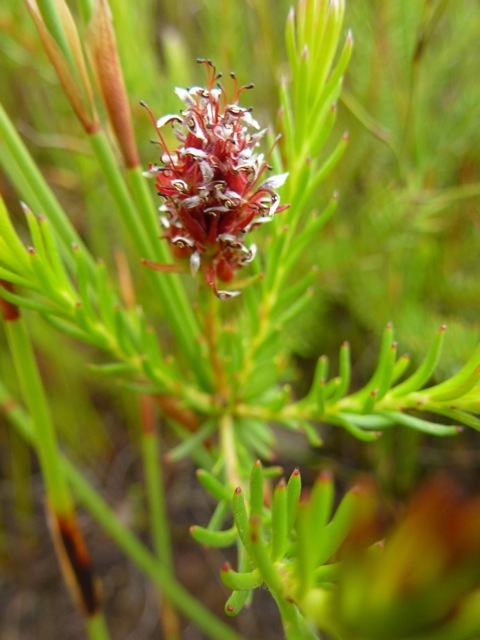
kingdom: Plantae
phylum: Tracheophyta
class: Magnoliopsida
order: Proteales
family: Proteaceae
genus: Spatalla
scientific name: Spatalla confusa
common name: Long-tube spoon
